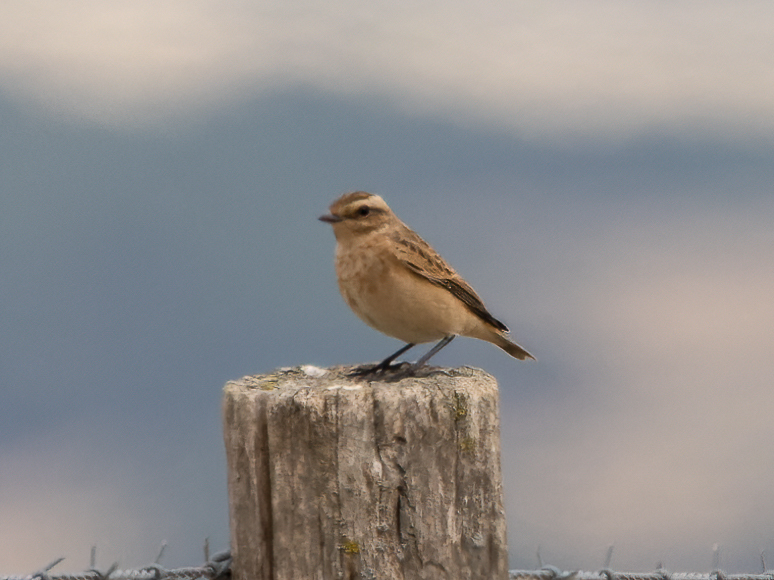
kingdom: Animalia
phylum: Chordata
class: Aves
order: Passeriformes
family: Muscicapidae
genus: Saxicola
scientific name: Saxicola rubetra
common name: Whinchat
